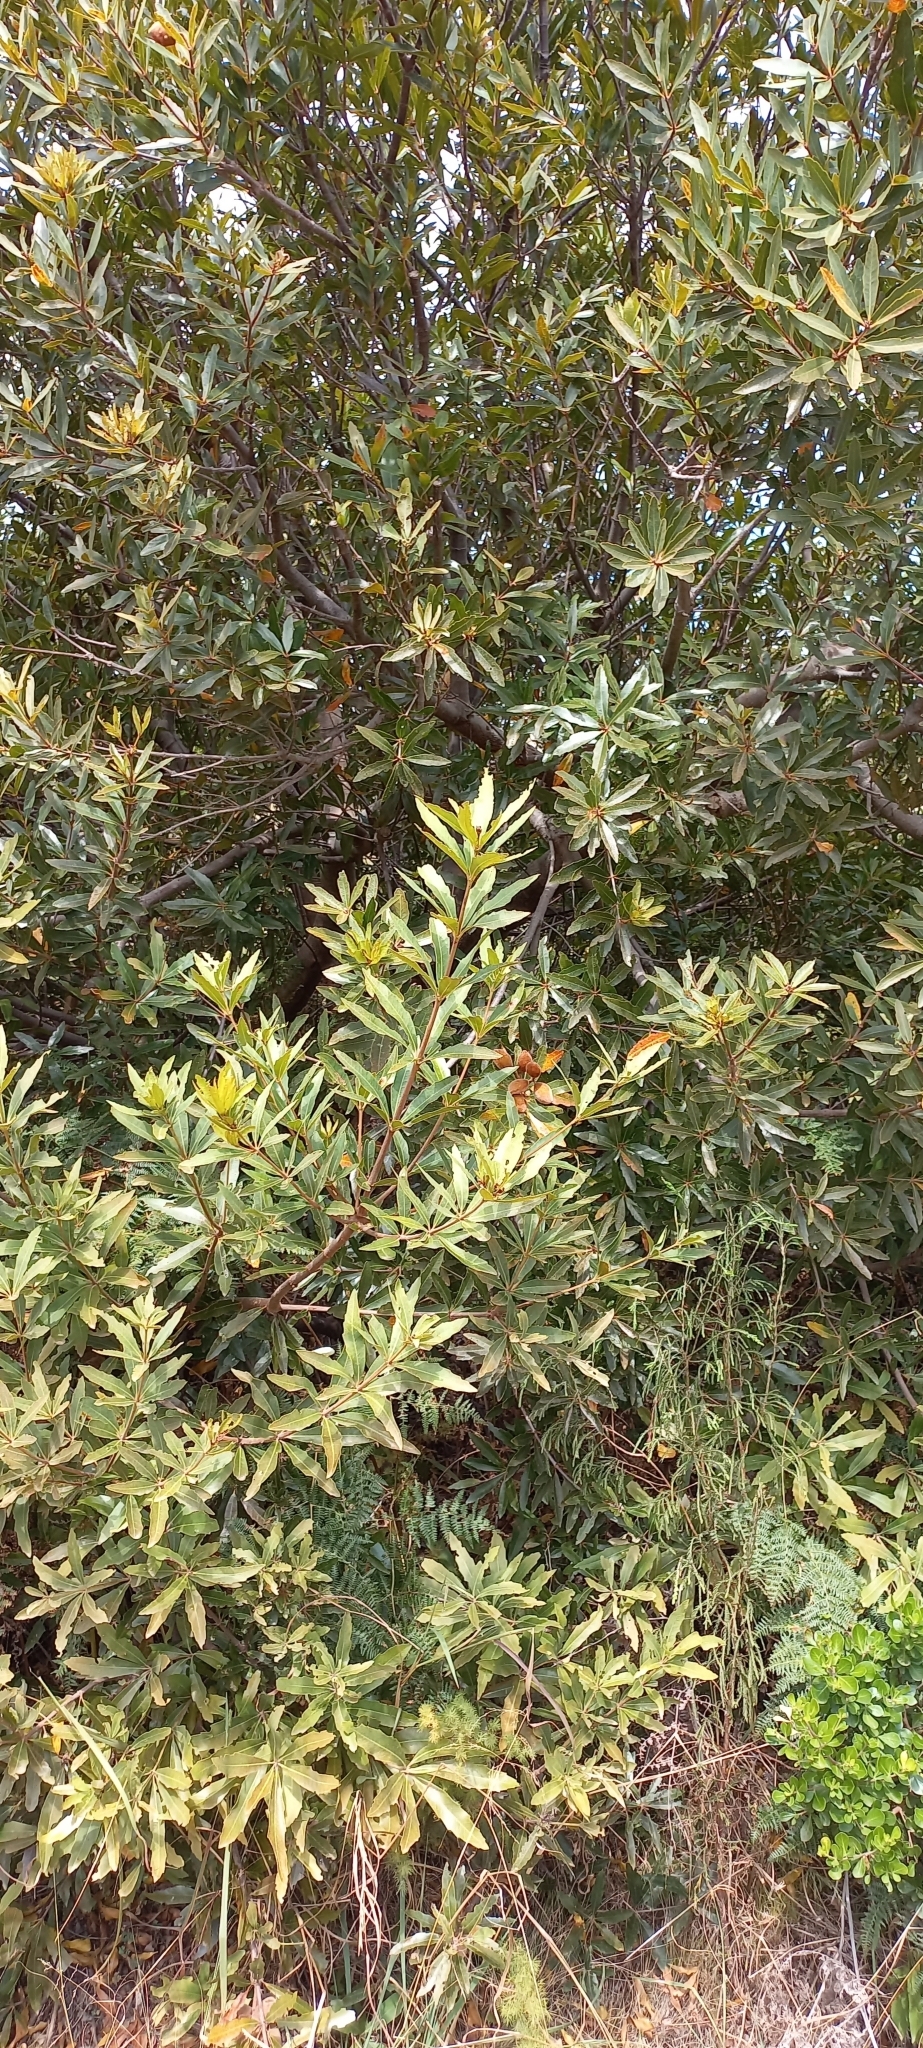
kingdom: Plantae
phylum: Tracheophyta
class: Magnoliopsida
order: Proteales
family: Proteaceae
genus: Brabejum
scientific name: Brabejum stellatifolium
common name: Wild almond
